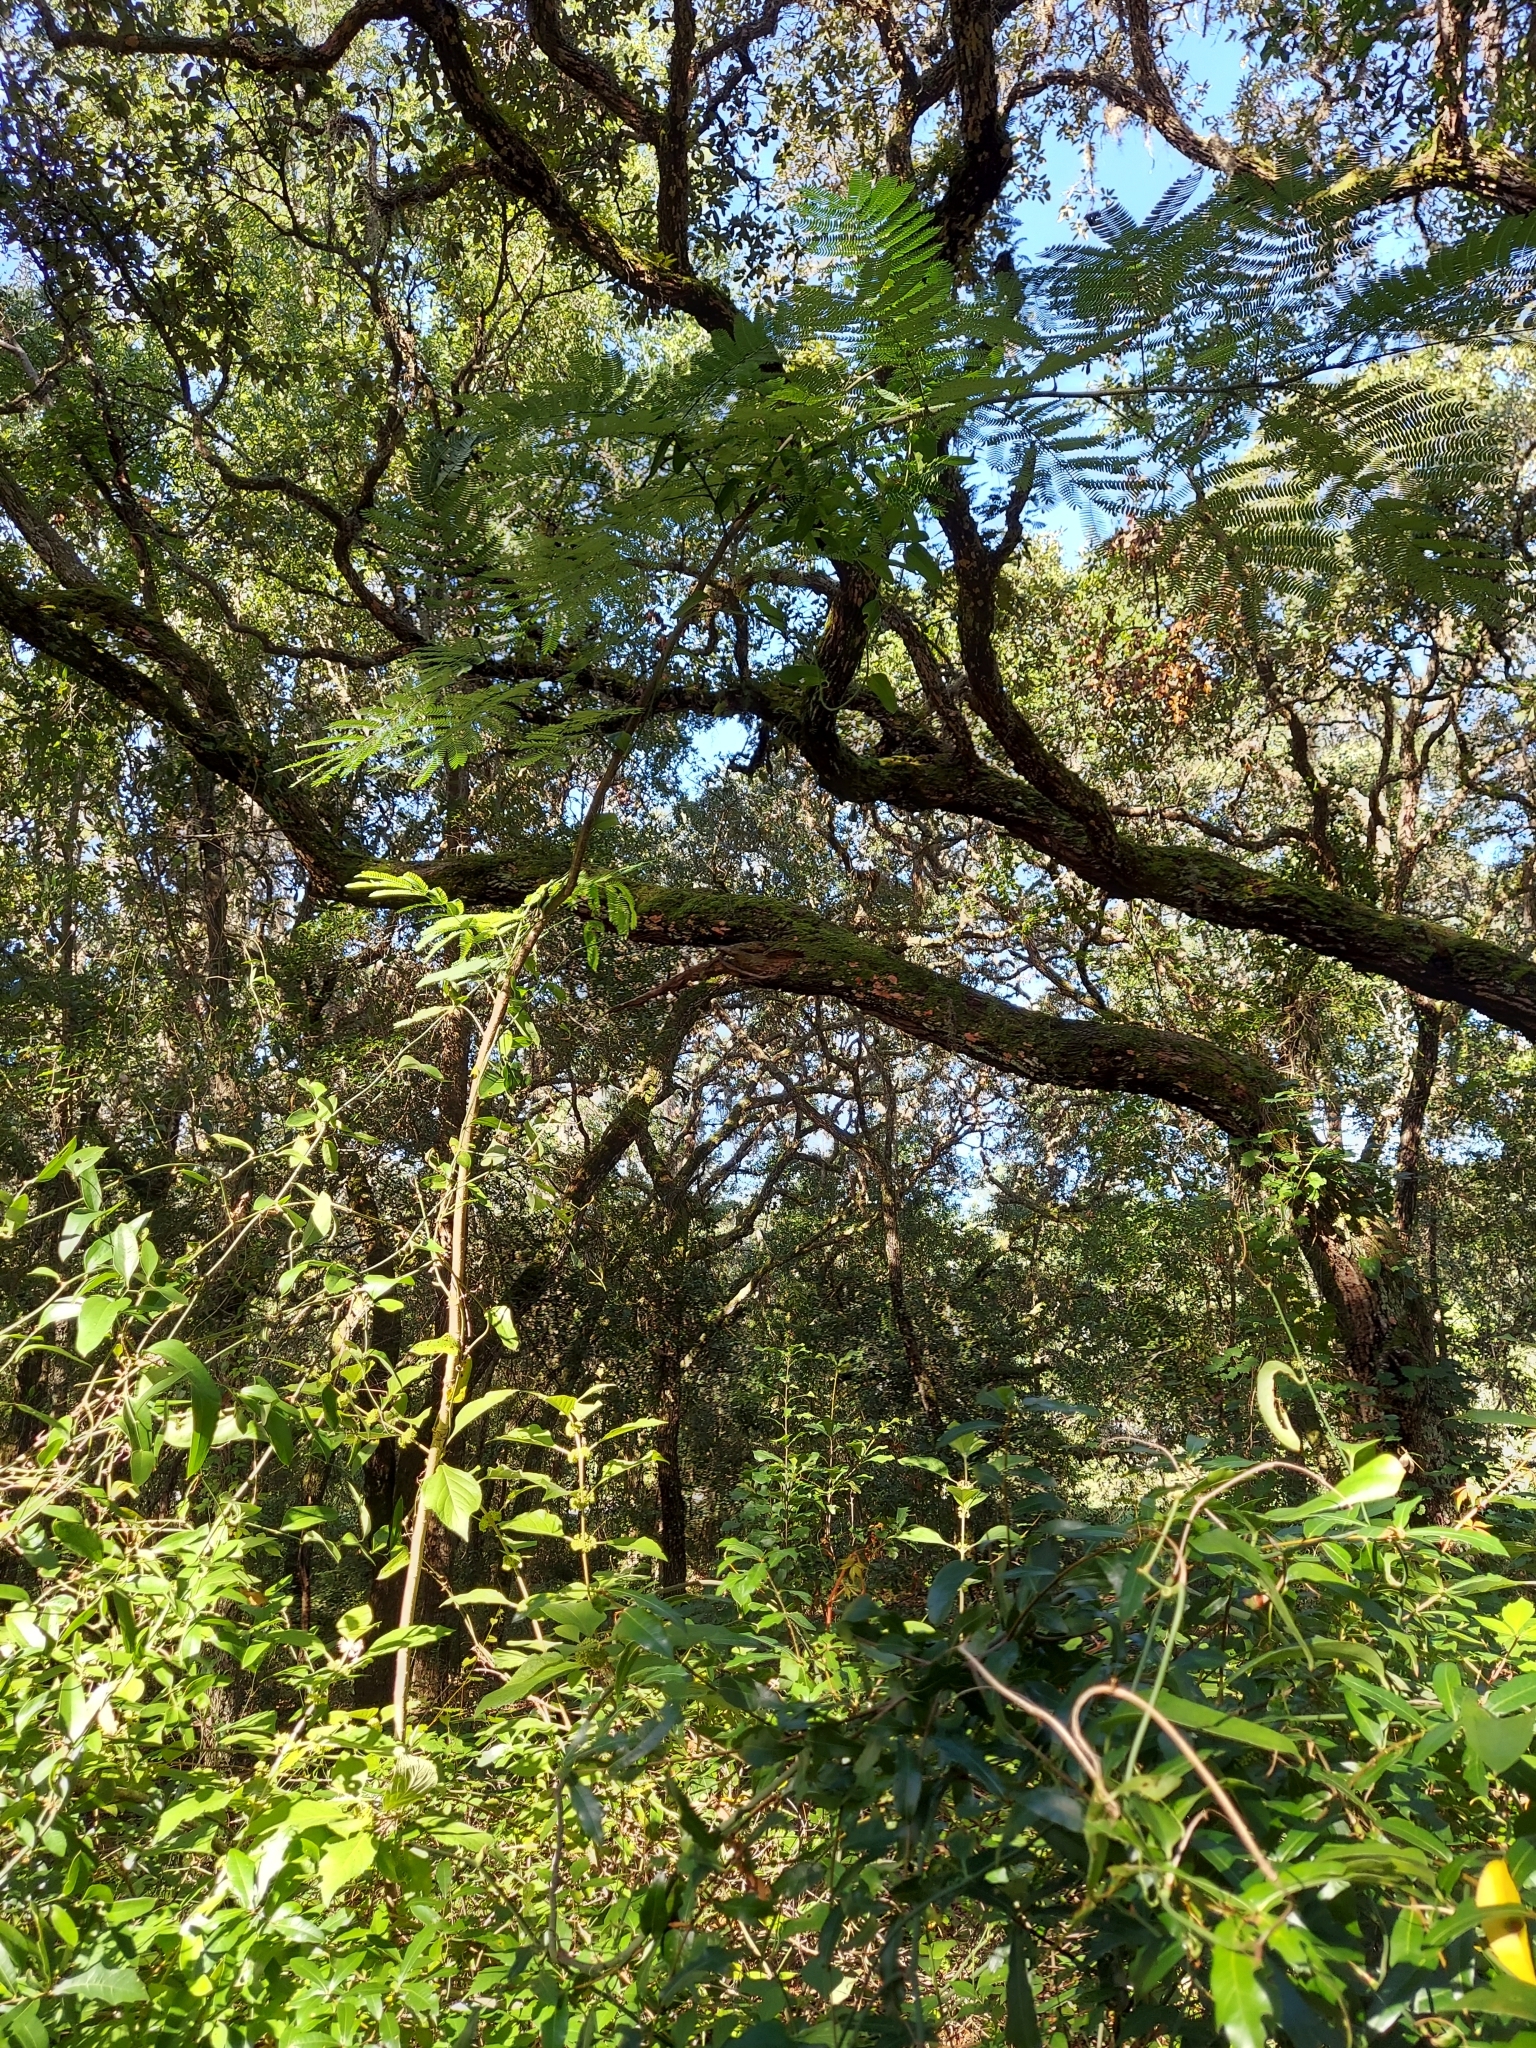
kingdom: Plantae
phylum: Tracheophyta
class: Magnoliopsida
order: Fabales
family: Fabaceae
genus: Albizia
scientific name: Albizia julibrissin
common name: Silktree
